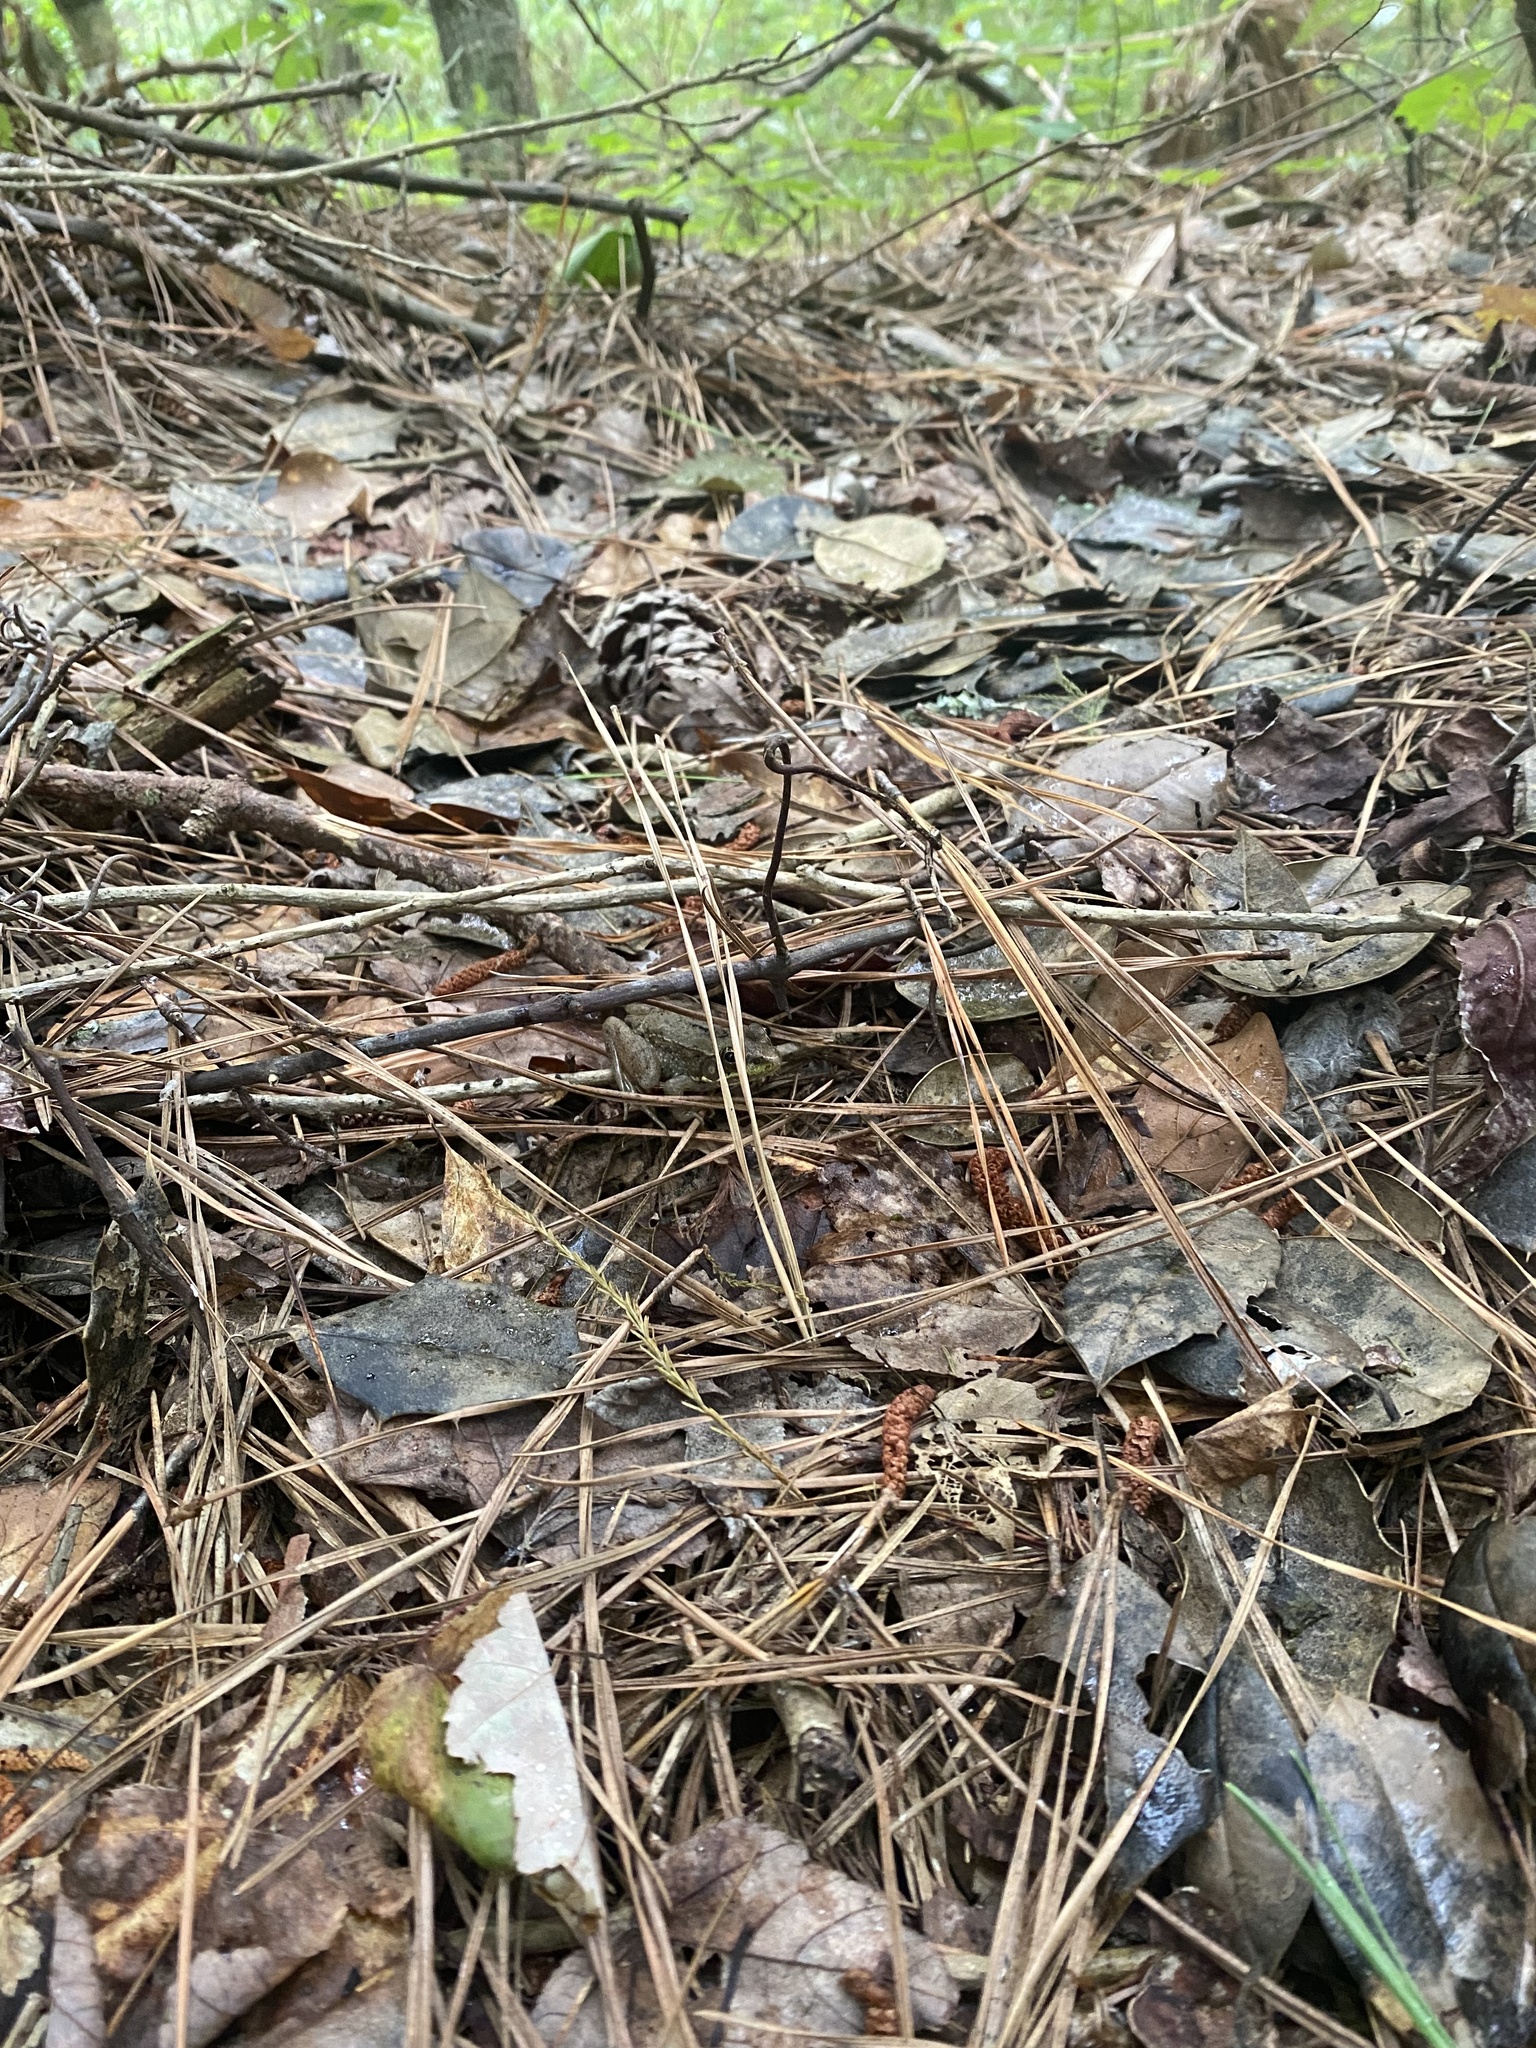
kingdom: Animalia
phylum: Chordata
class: Amphibia
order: Anura
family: Ranidae
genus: Lithobates
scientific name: Lithobates clamitans
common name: Green frog
